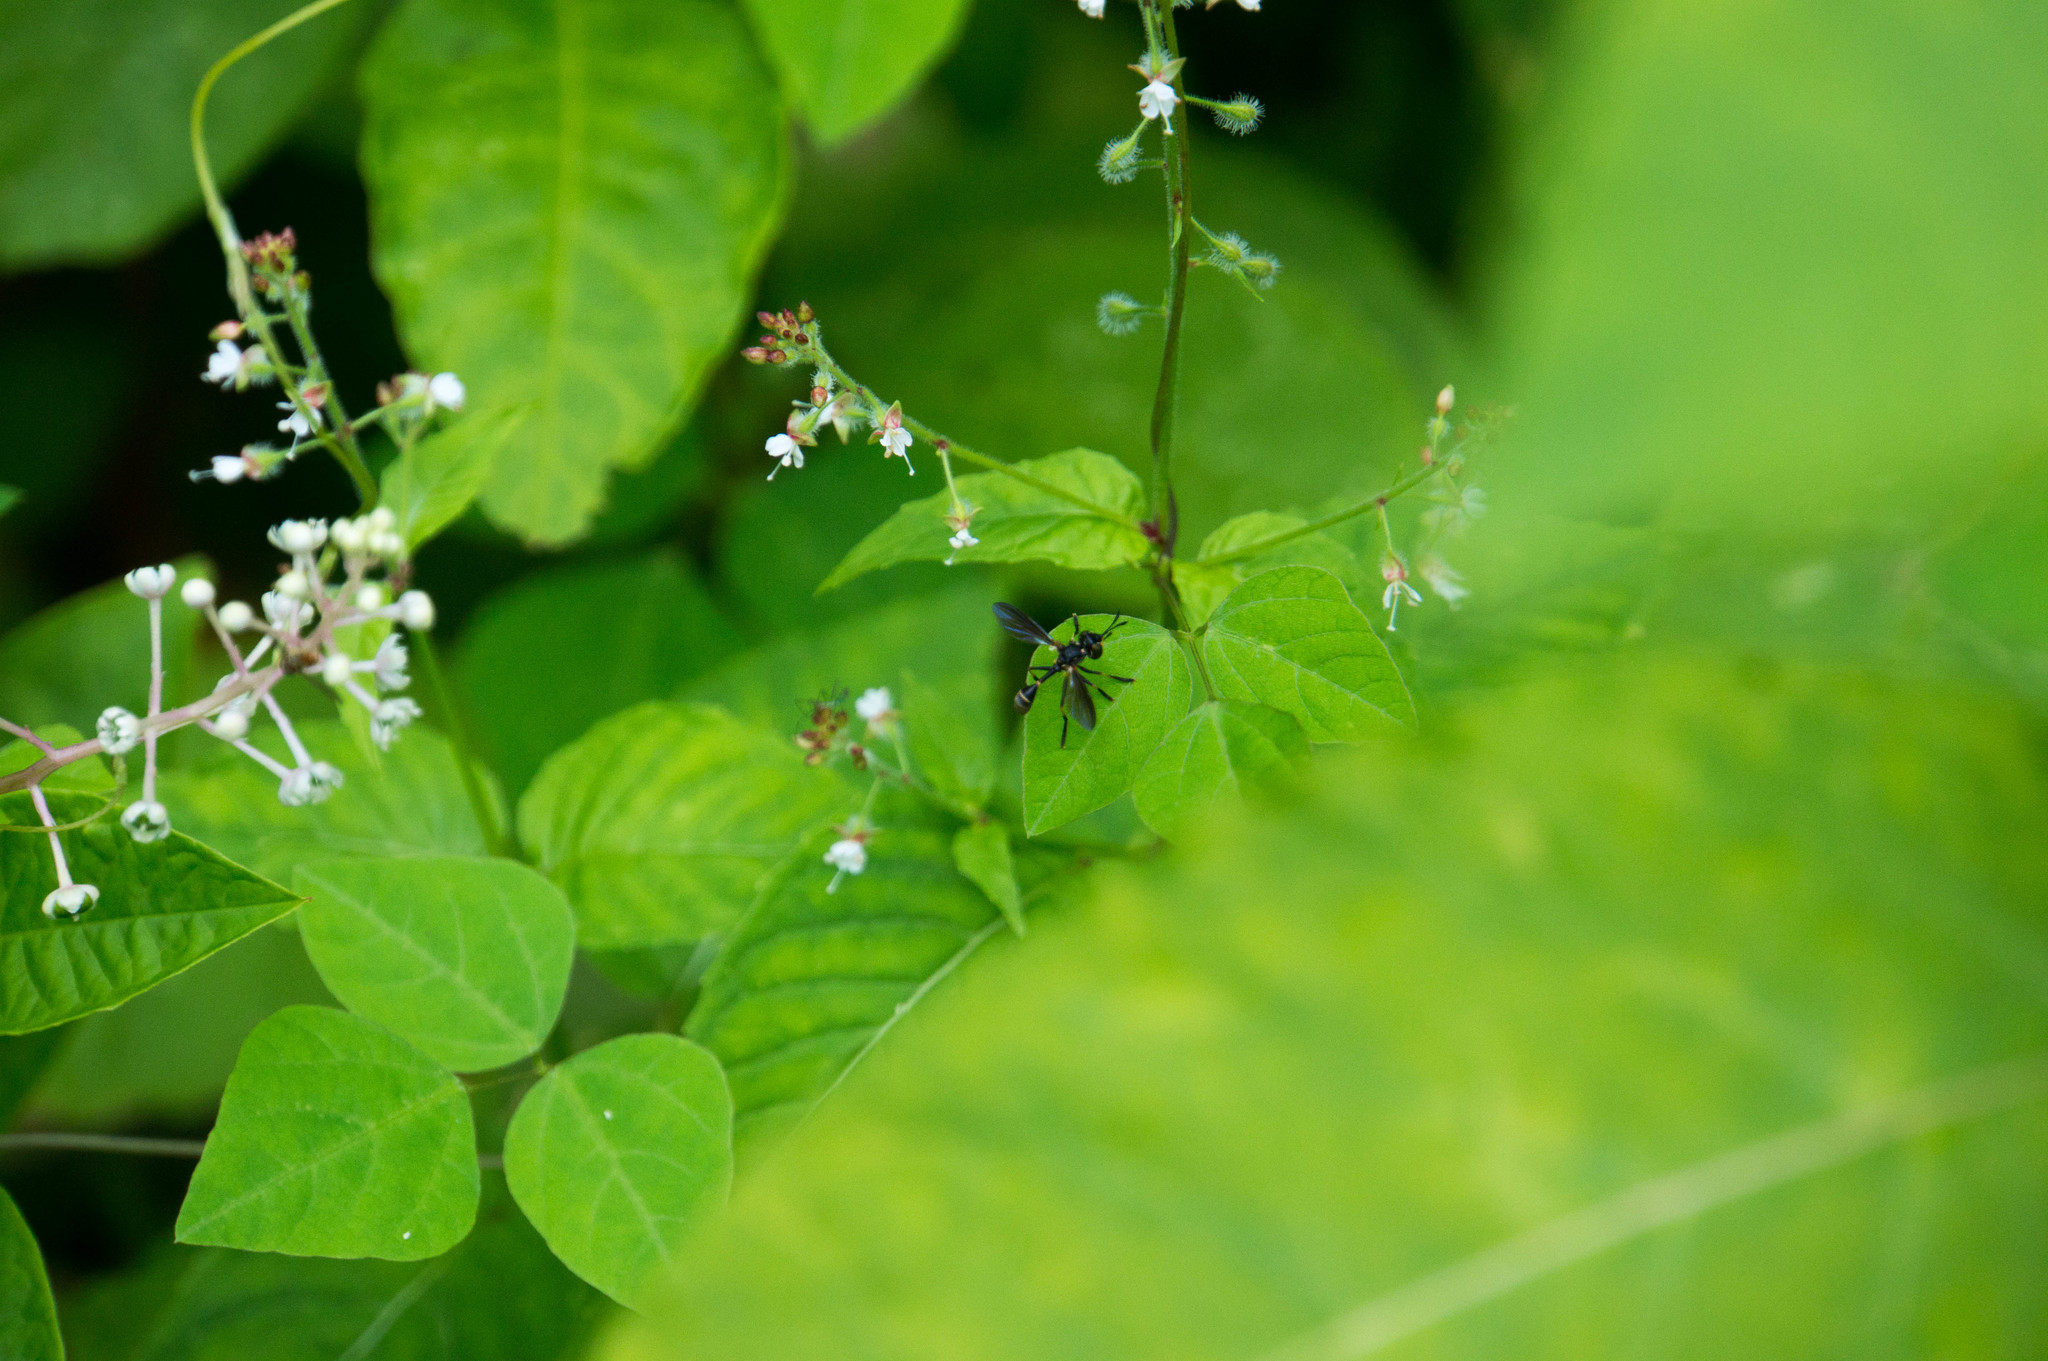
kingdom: Animalia
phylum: Arthropoda
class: Insecta
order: Diptera
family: Conopidae
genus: Physoconops
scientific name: Physoconops obscuripennis
